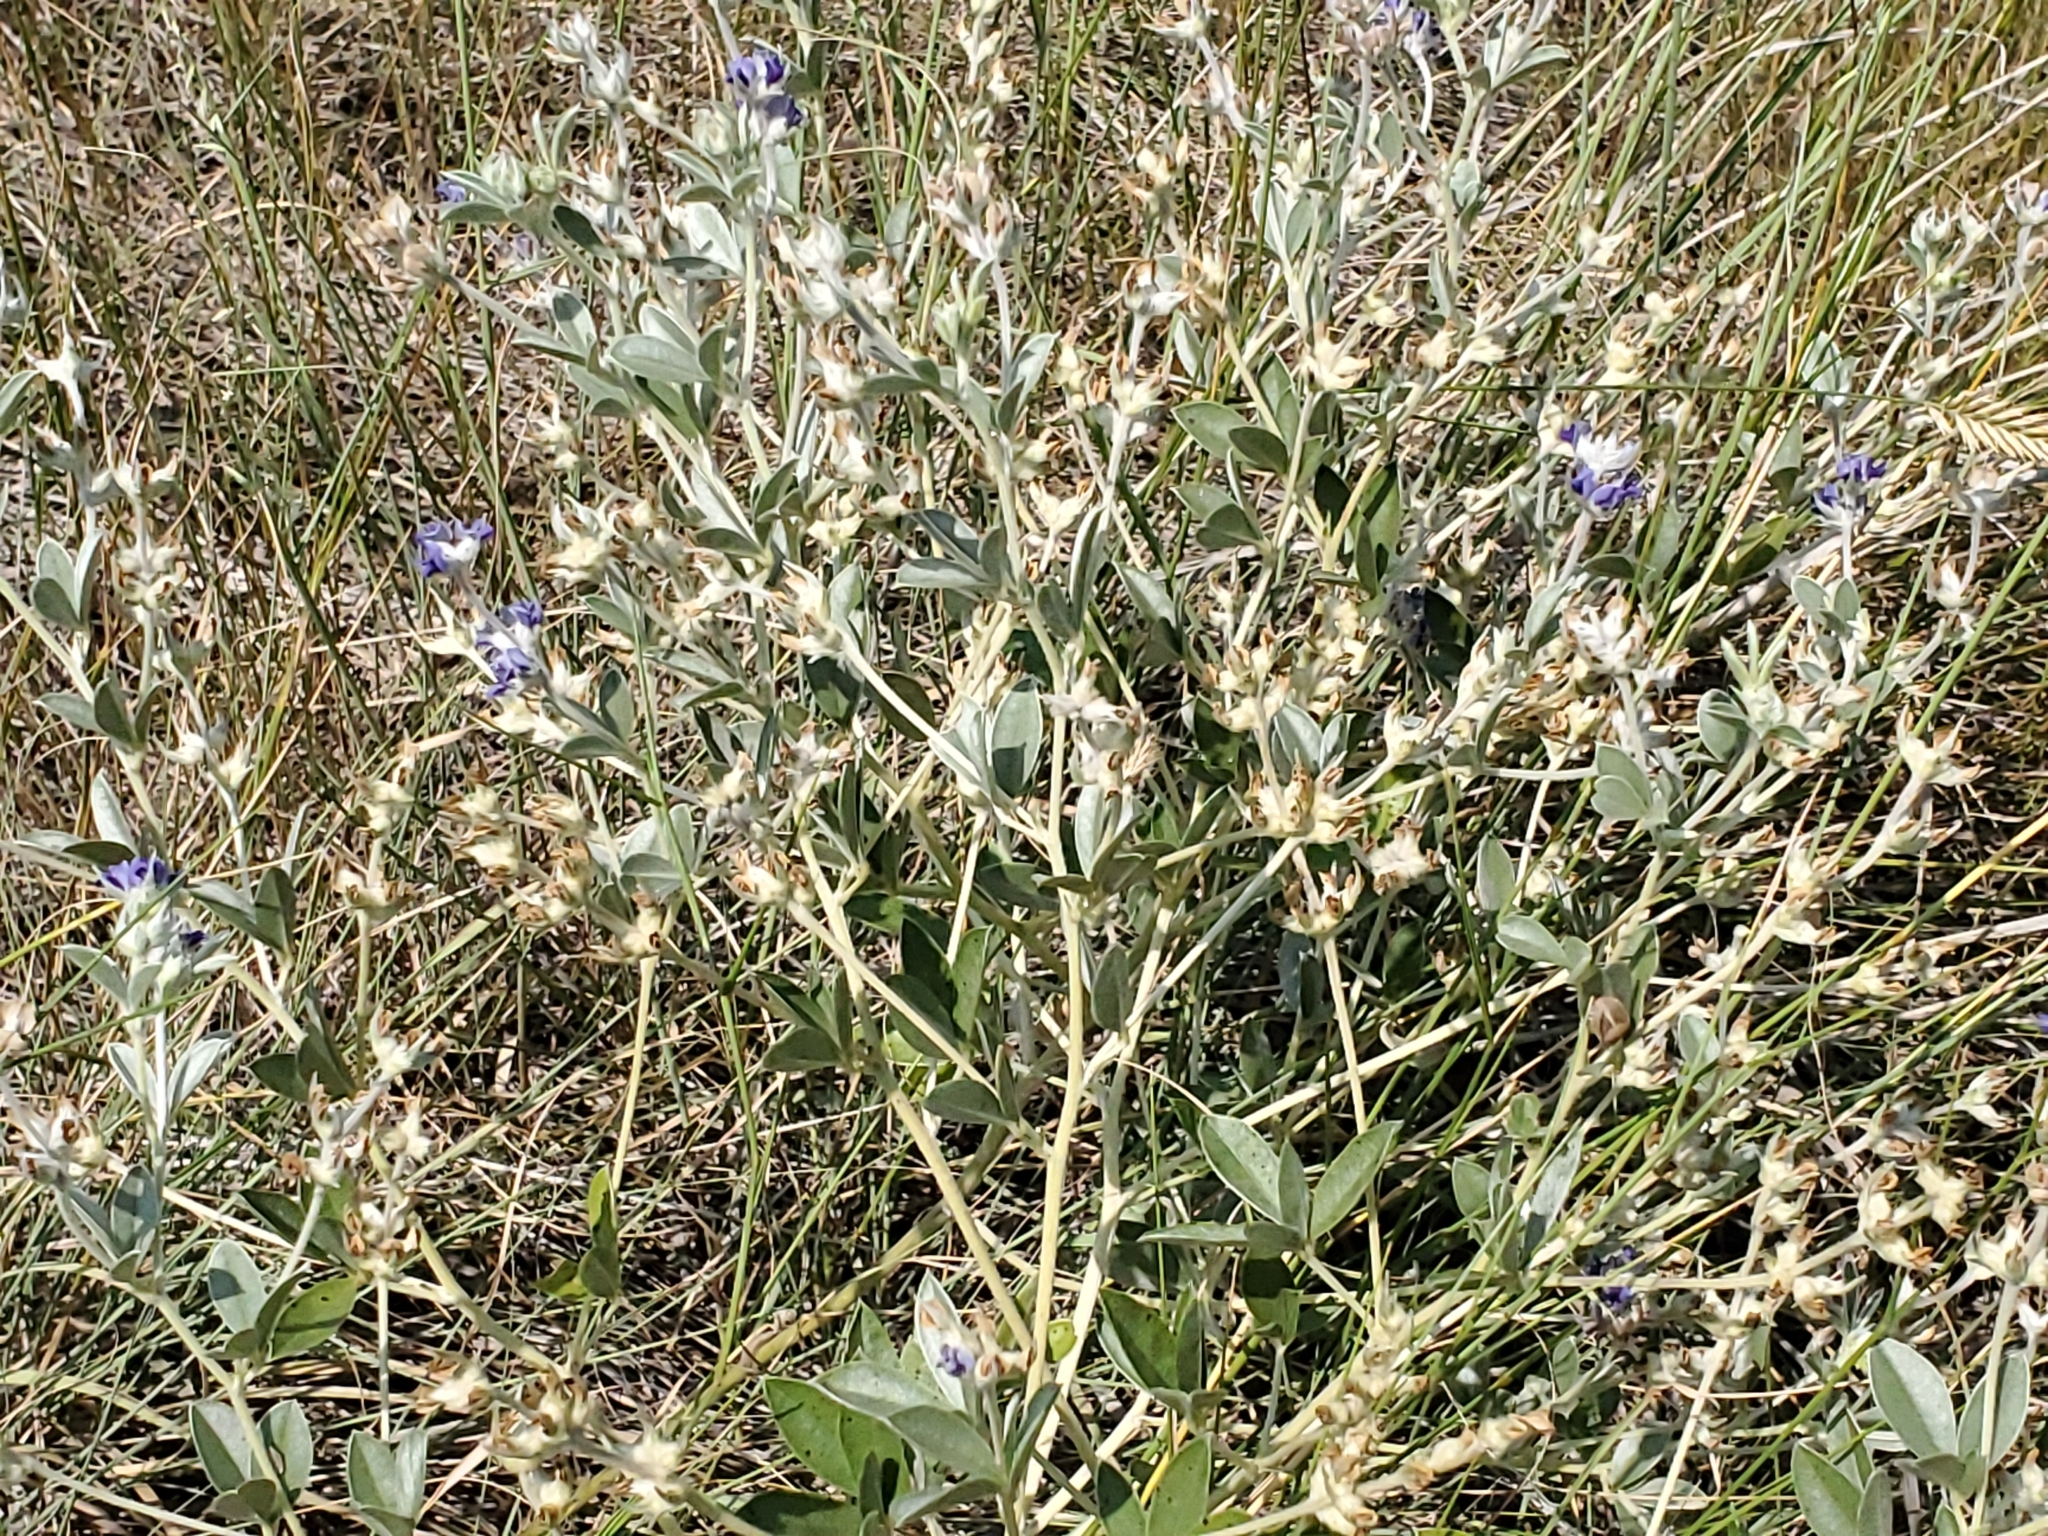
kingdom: Plantae
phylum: Tracheophyta
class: Magnoliopsida
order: Fabales
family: Fabaceae
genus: Pediomelum
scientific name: Pediomelum argophyllum
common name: Silver-leaved indian breadroot
